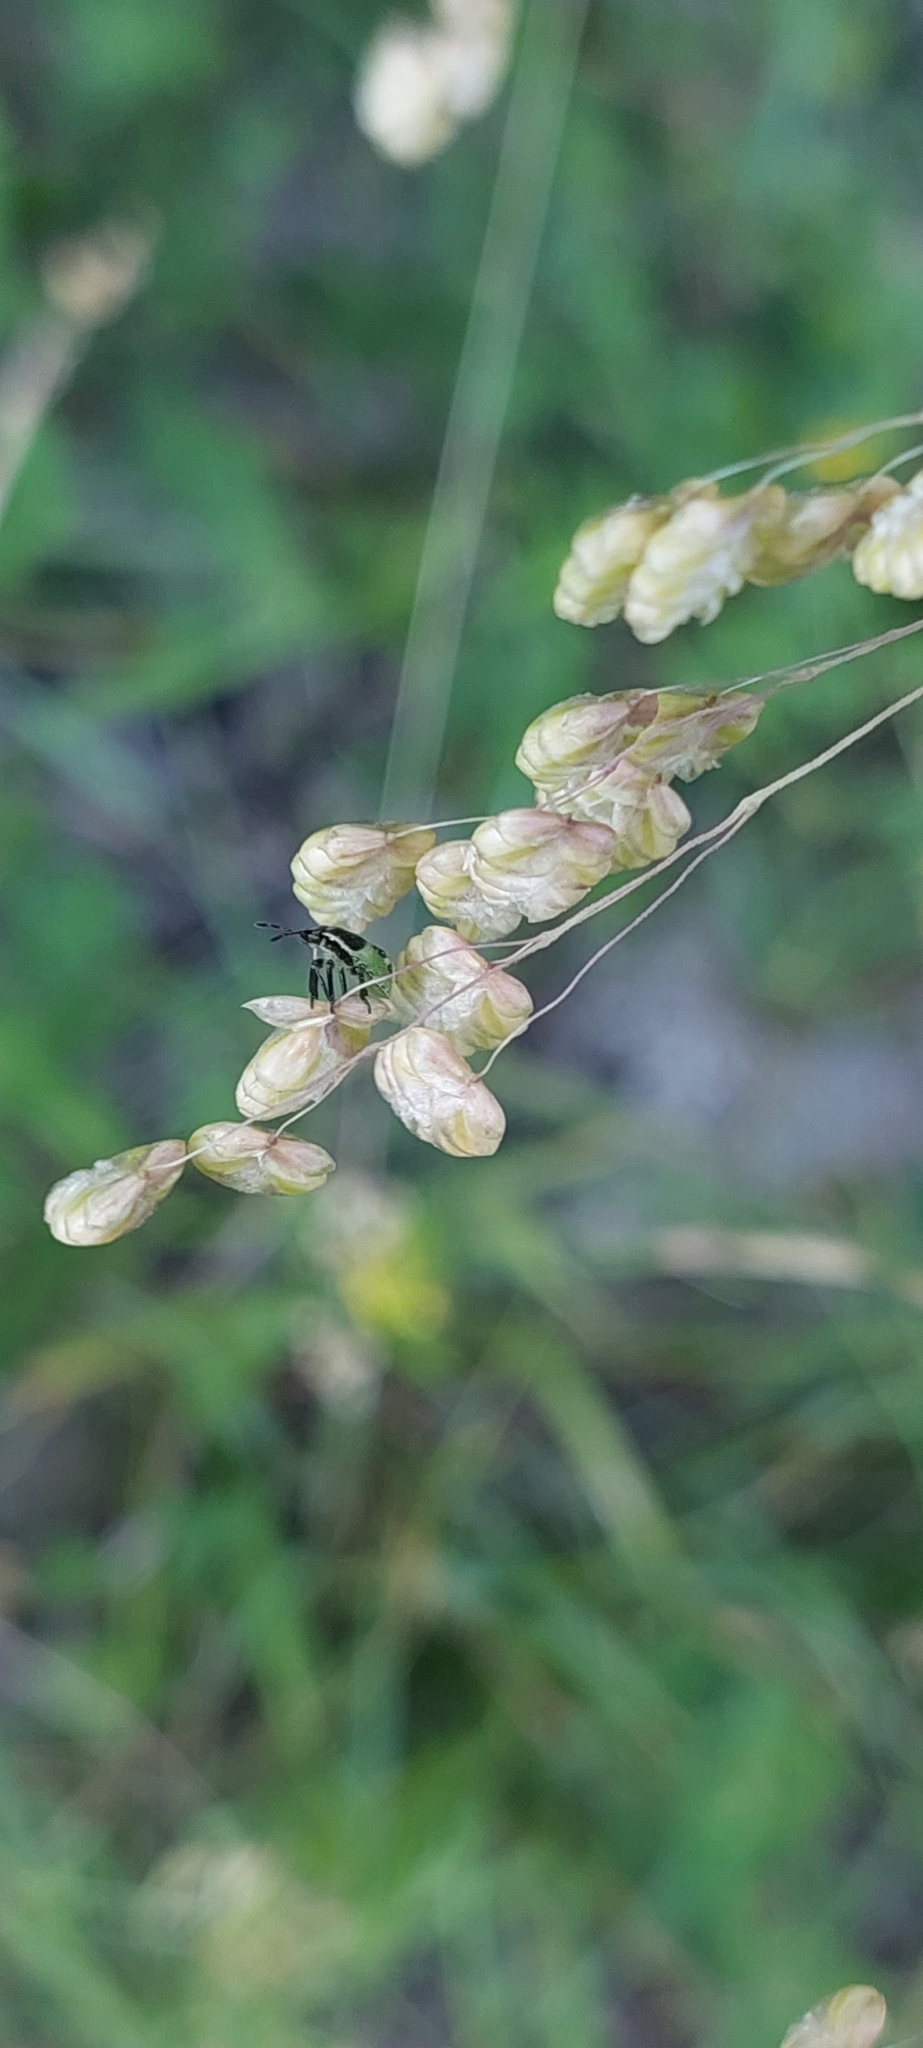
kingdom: Plantae
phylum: Tracheophyta
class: Liliopsida
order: Poales
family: Poaceae
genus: Briza
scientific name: Briza media
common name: Quaking grass
